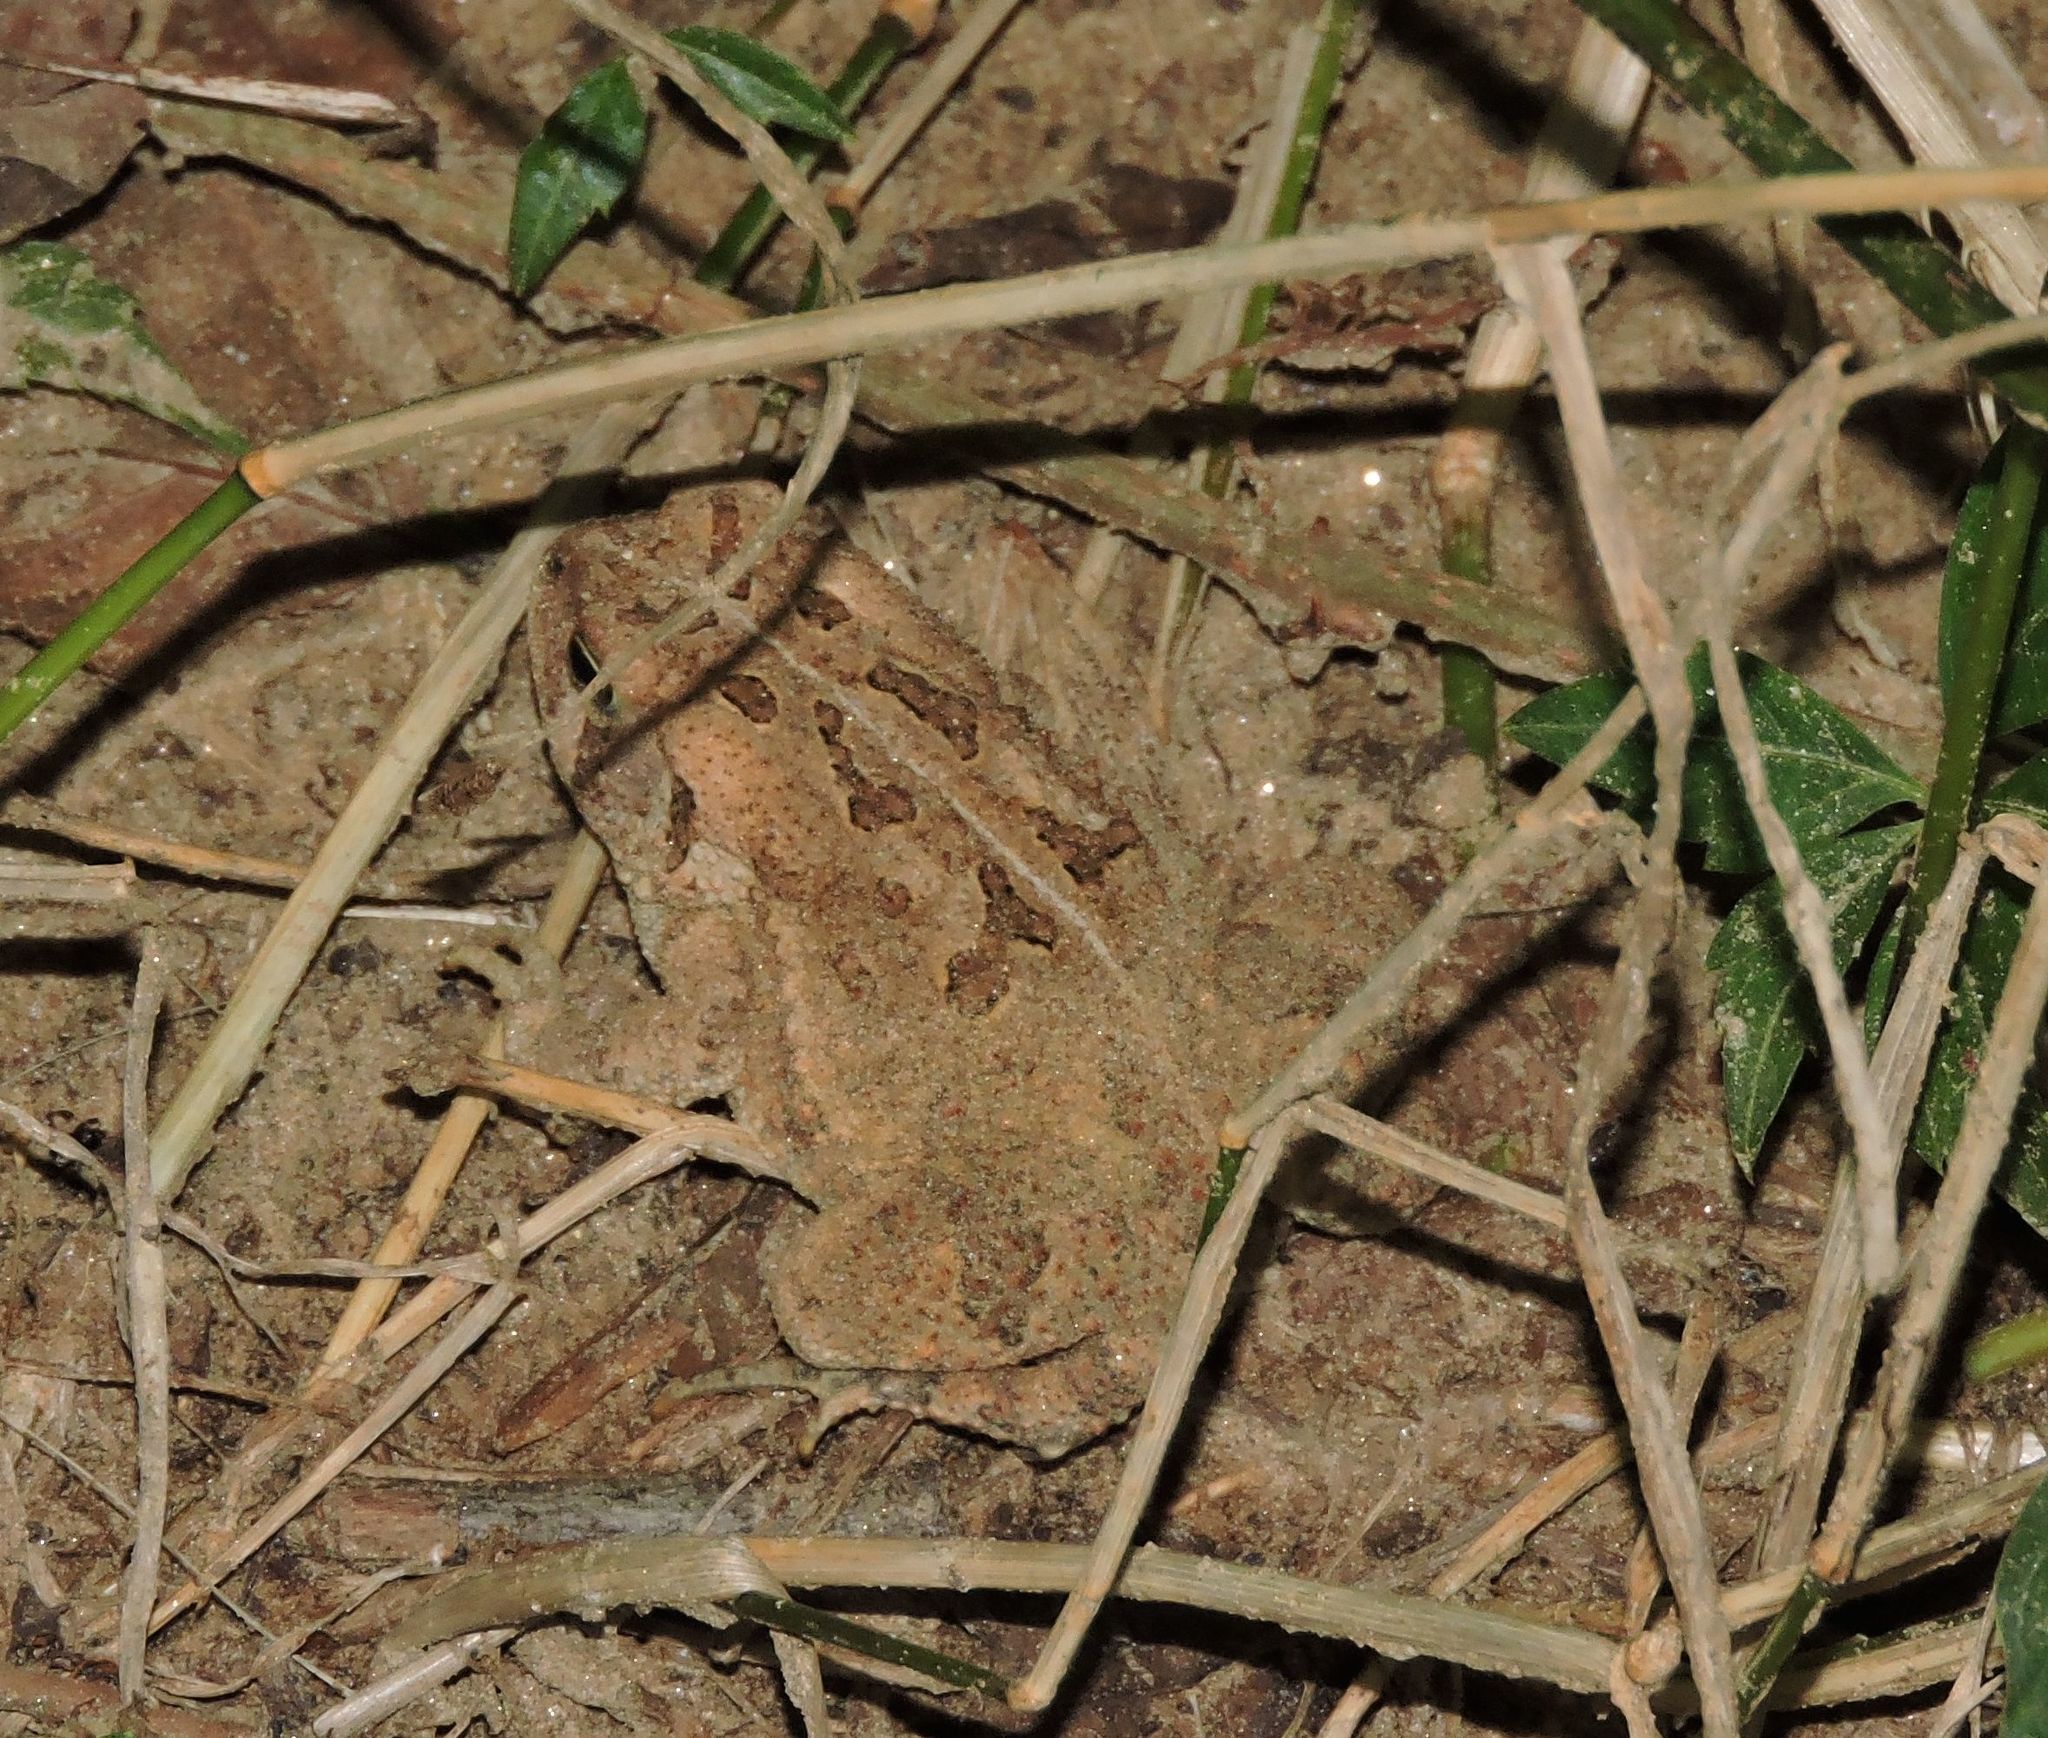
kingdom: Animalia
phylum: Chordata
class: Amphibia
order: Anura
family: Bufonidae
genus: Anaxyrus
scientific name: Anaxyrus fowleri
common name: Fowler's toad
